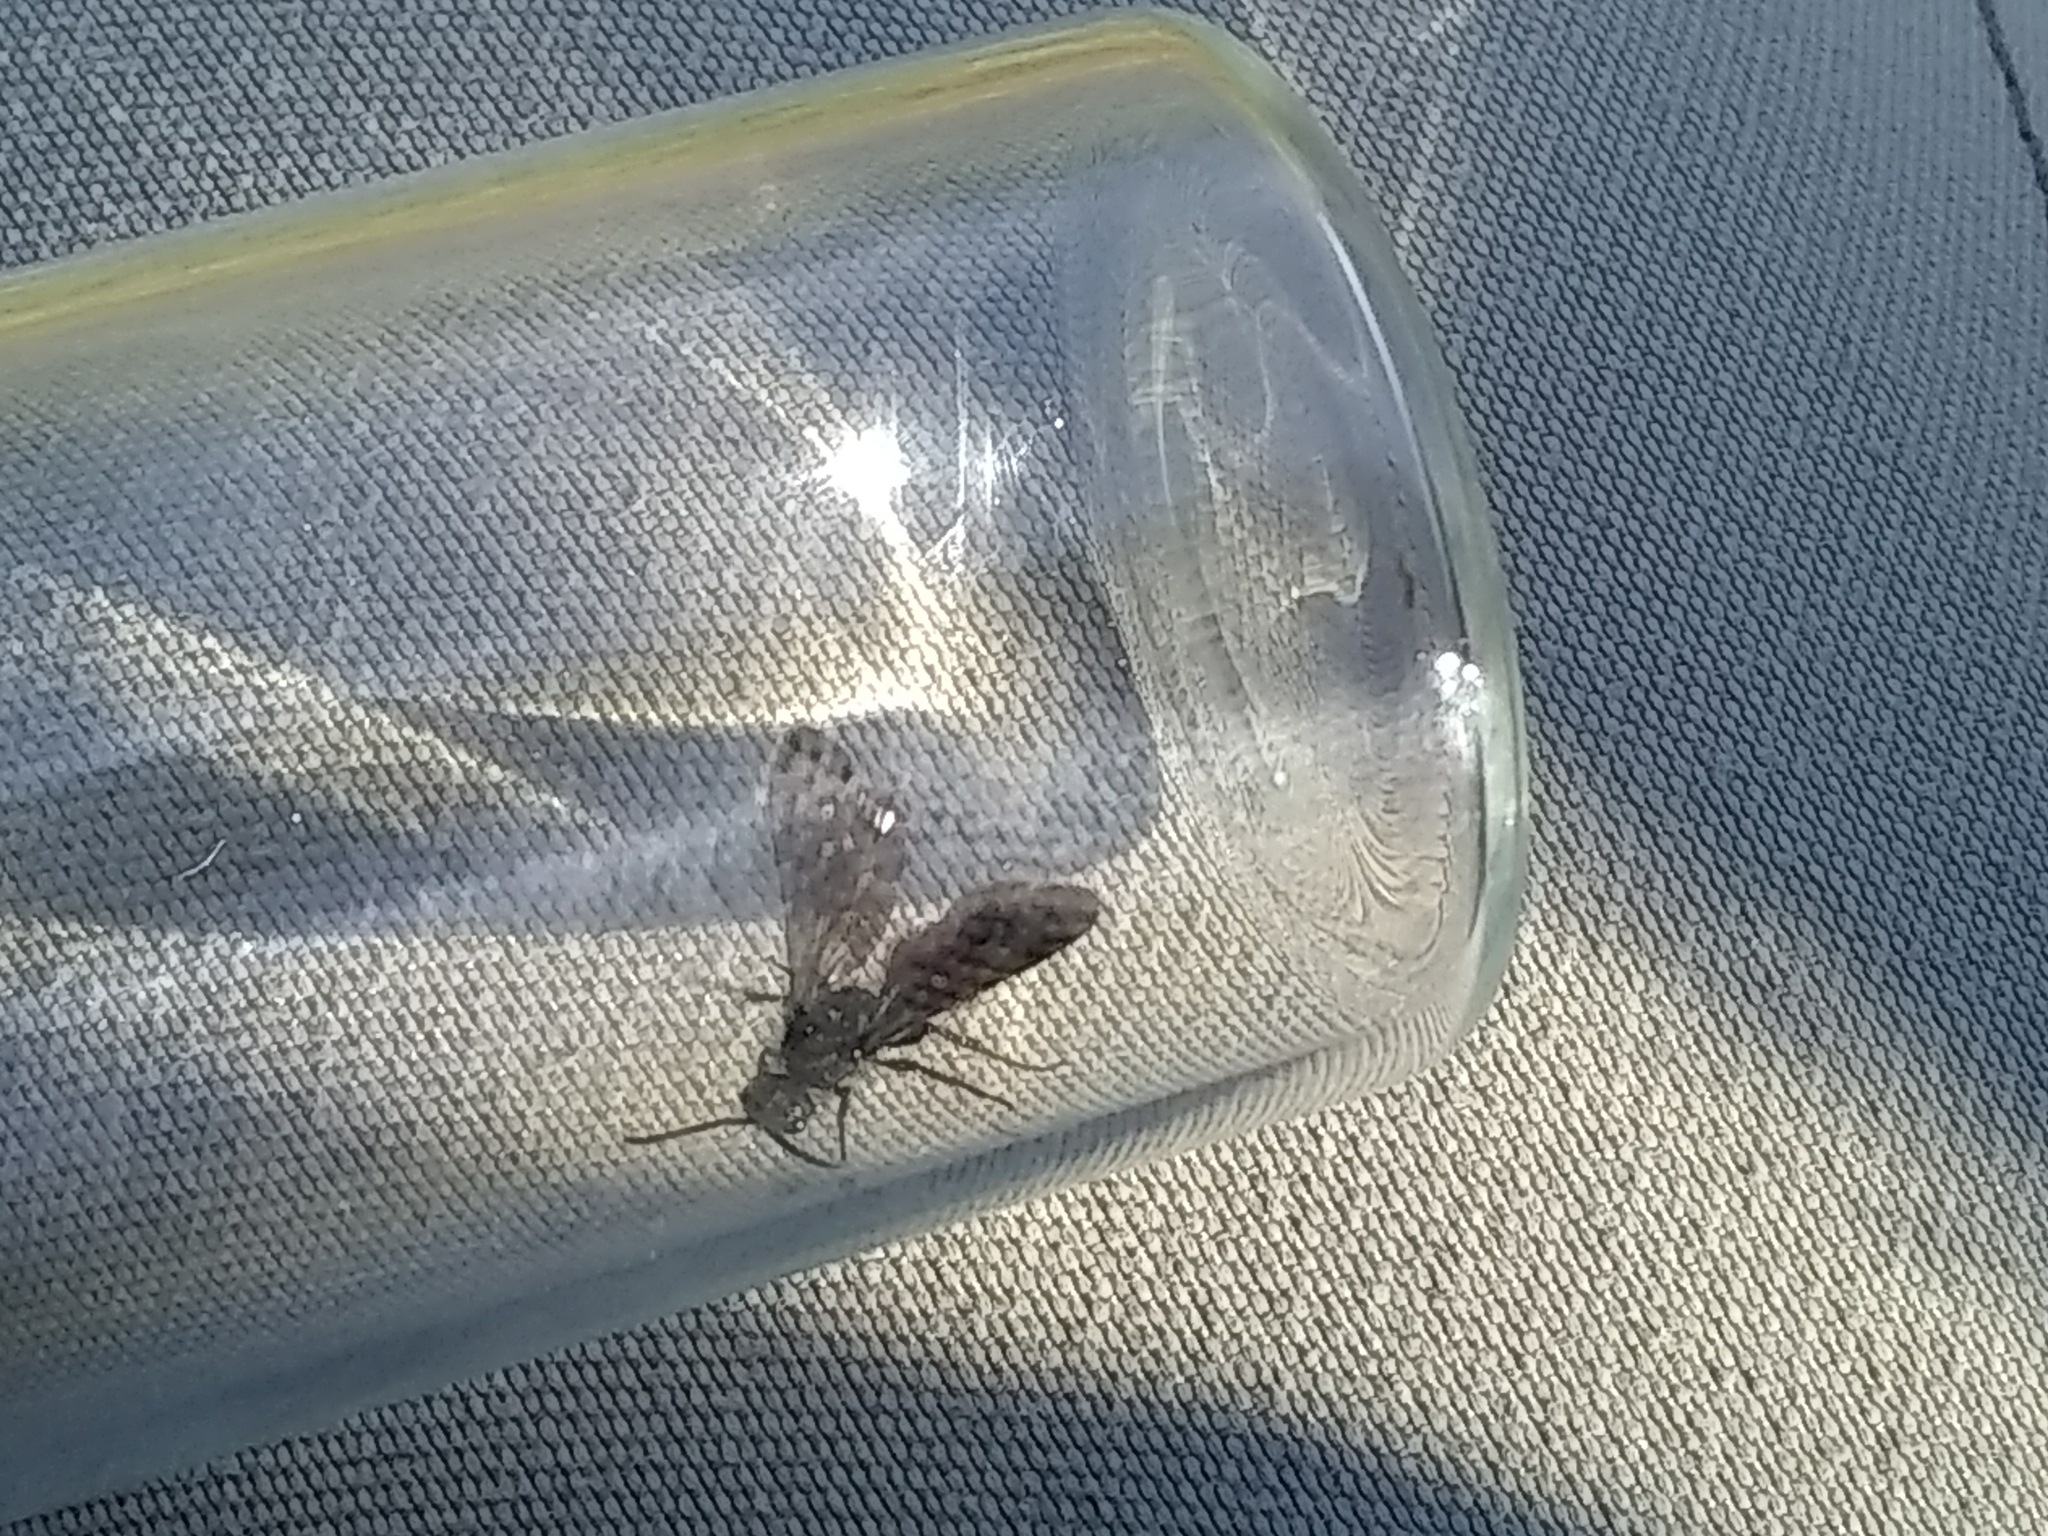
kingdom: Animalia
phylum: Arthropoda
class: Insecta
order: Hymenoptera
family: Mutillidae
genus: Dasymutilla
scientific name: Dasymutilla
